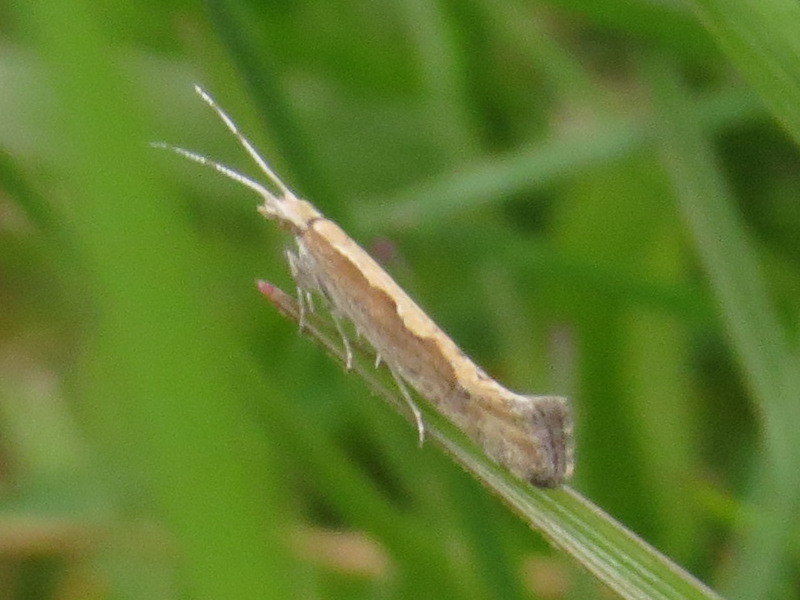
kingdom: Animalia
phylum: Arthropoda
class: Insecta
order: Lepidoptera
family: Plutellidae
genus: Plutella
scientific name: Plutella xylostella
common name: Diamond-back moth
